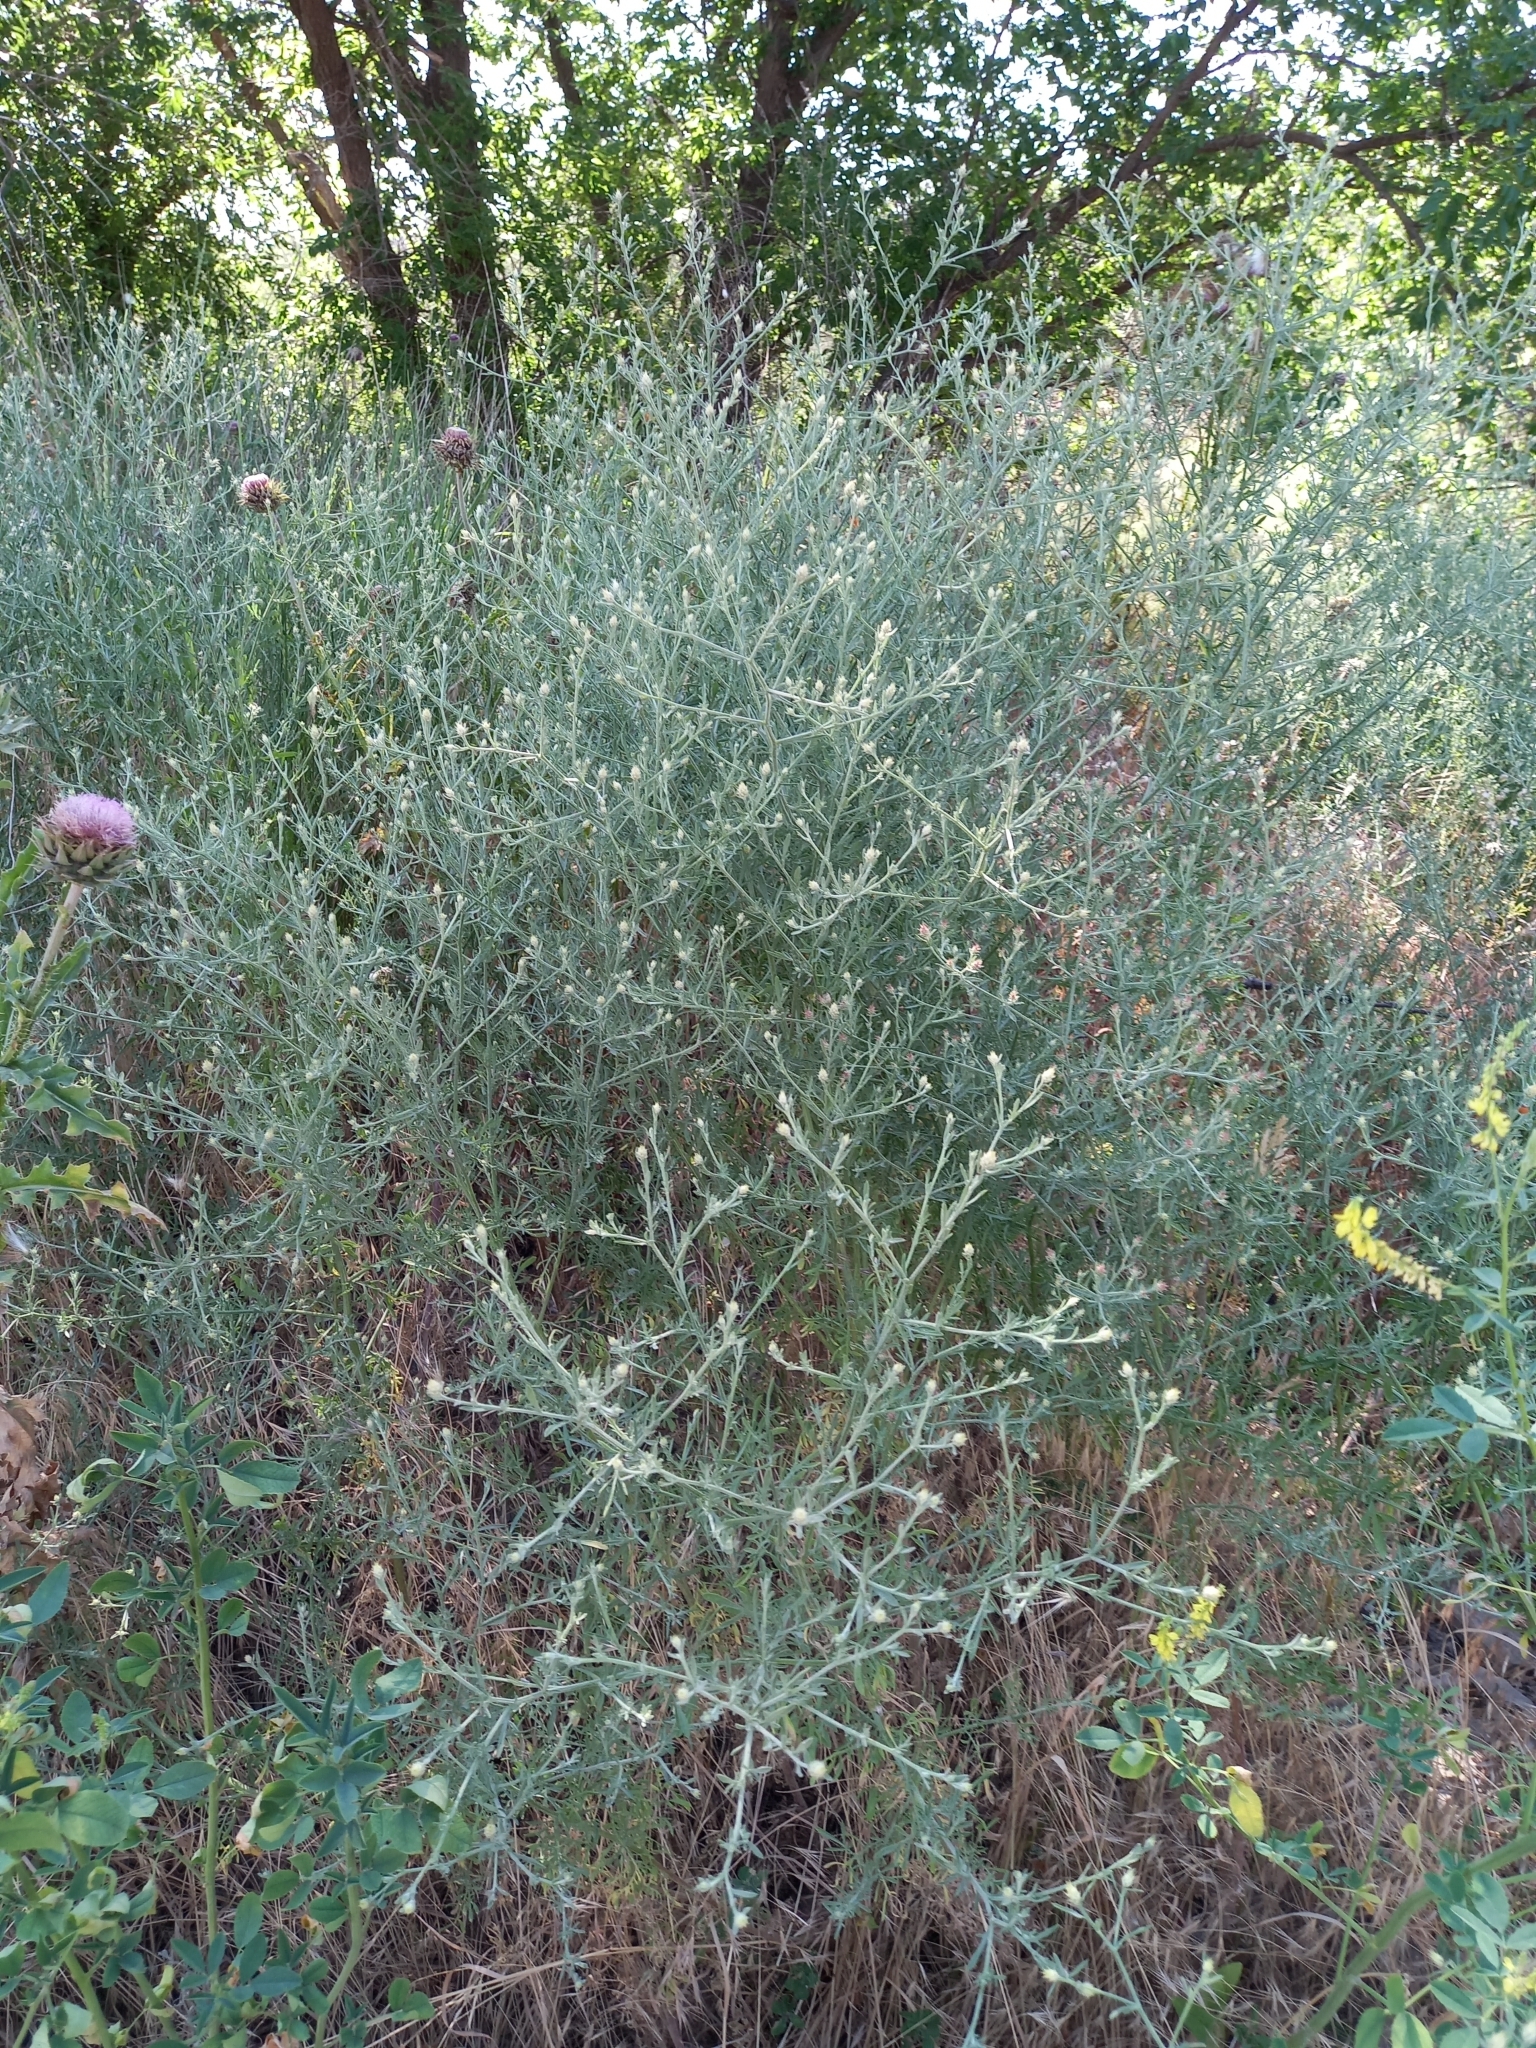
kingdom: Plantae
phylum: Tracheophyta
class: Magnoliopsida
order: Asterales
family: Asteraceae
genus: Centaurea
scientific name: Centaurea diffusa
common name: Diffuse knapweed
